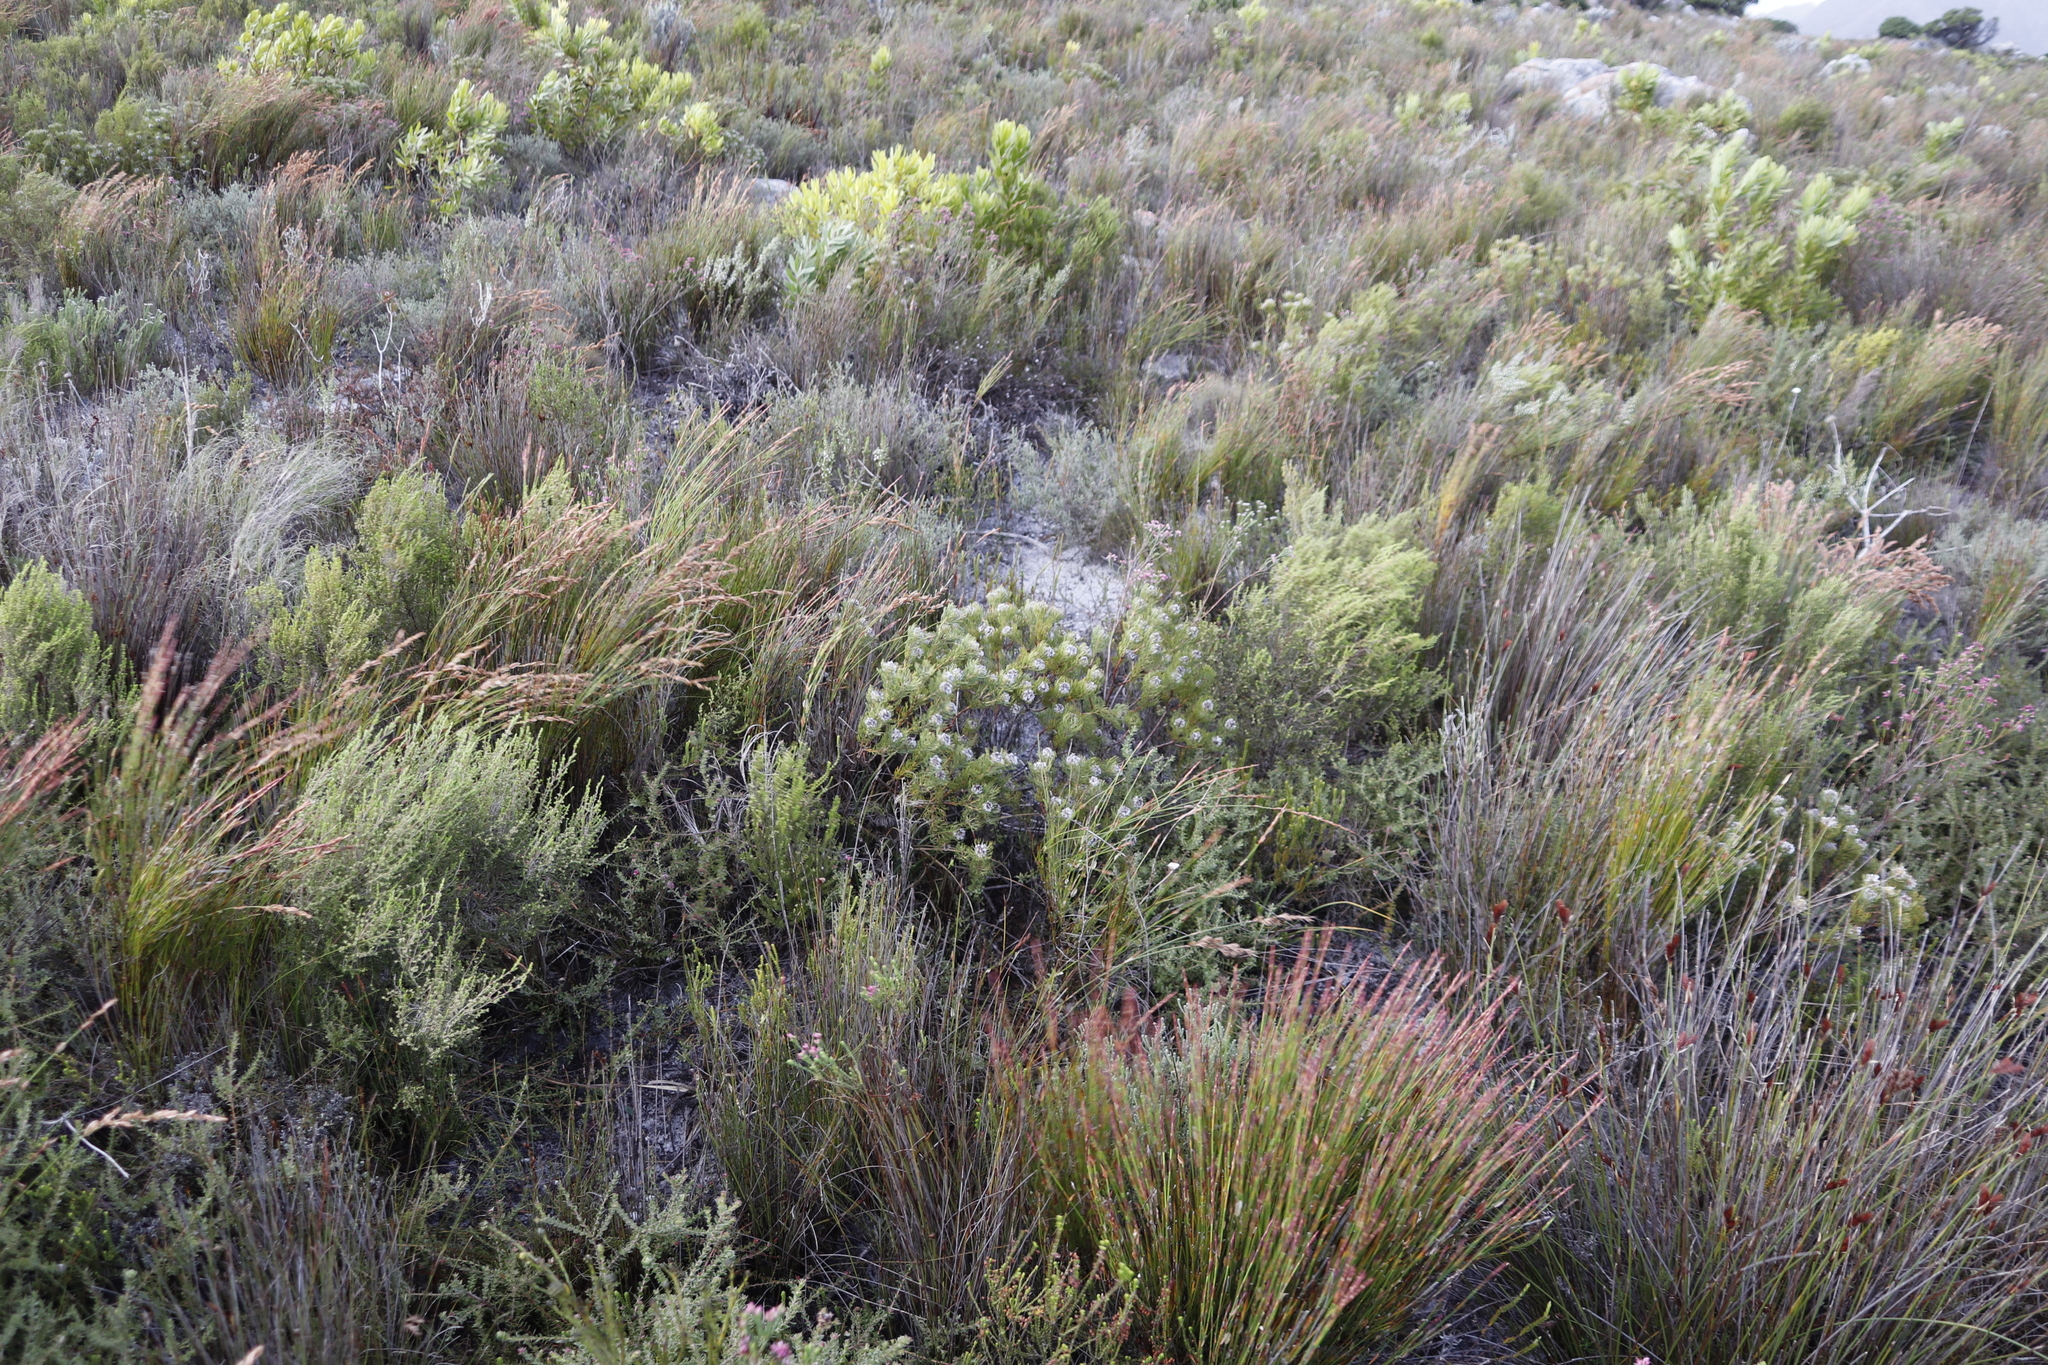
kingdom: Plantae
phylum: Tracheophyta
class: Magnoliopsida
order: Proteales
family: Proteaceae
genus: Serruria
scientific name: Serruria villosa
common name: Golden spiderhead
